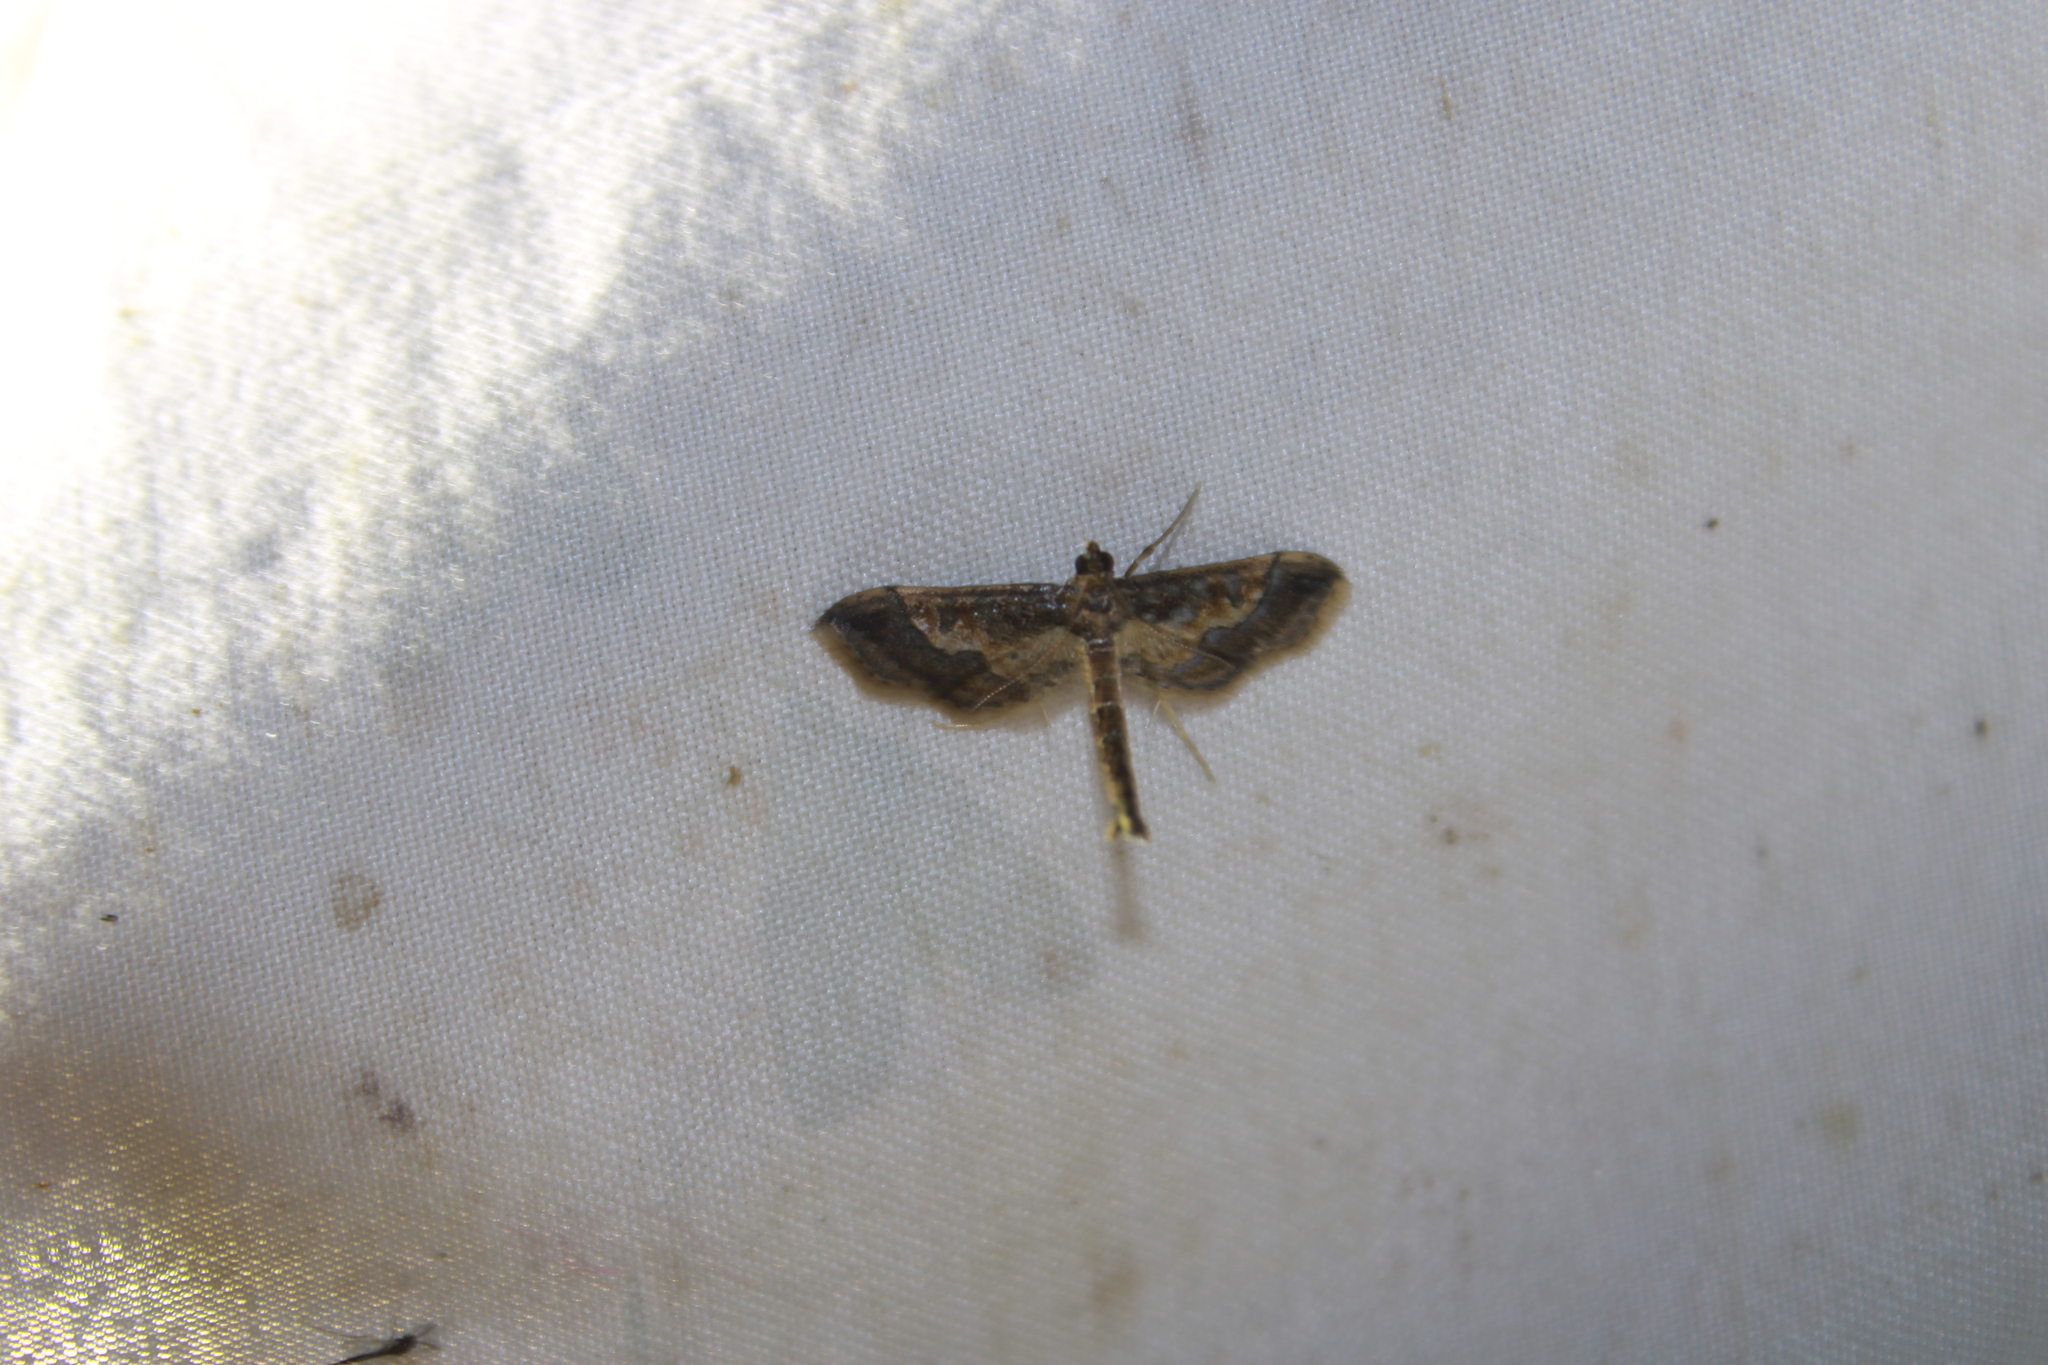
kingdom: Animalia
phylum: Arthropoda
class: Insecta
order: Lepidoptera
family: Crambidae
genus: Hydriris
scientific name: Hydriris ornatalis
